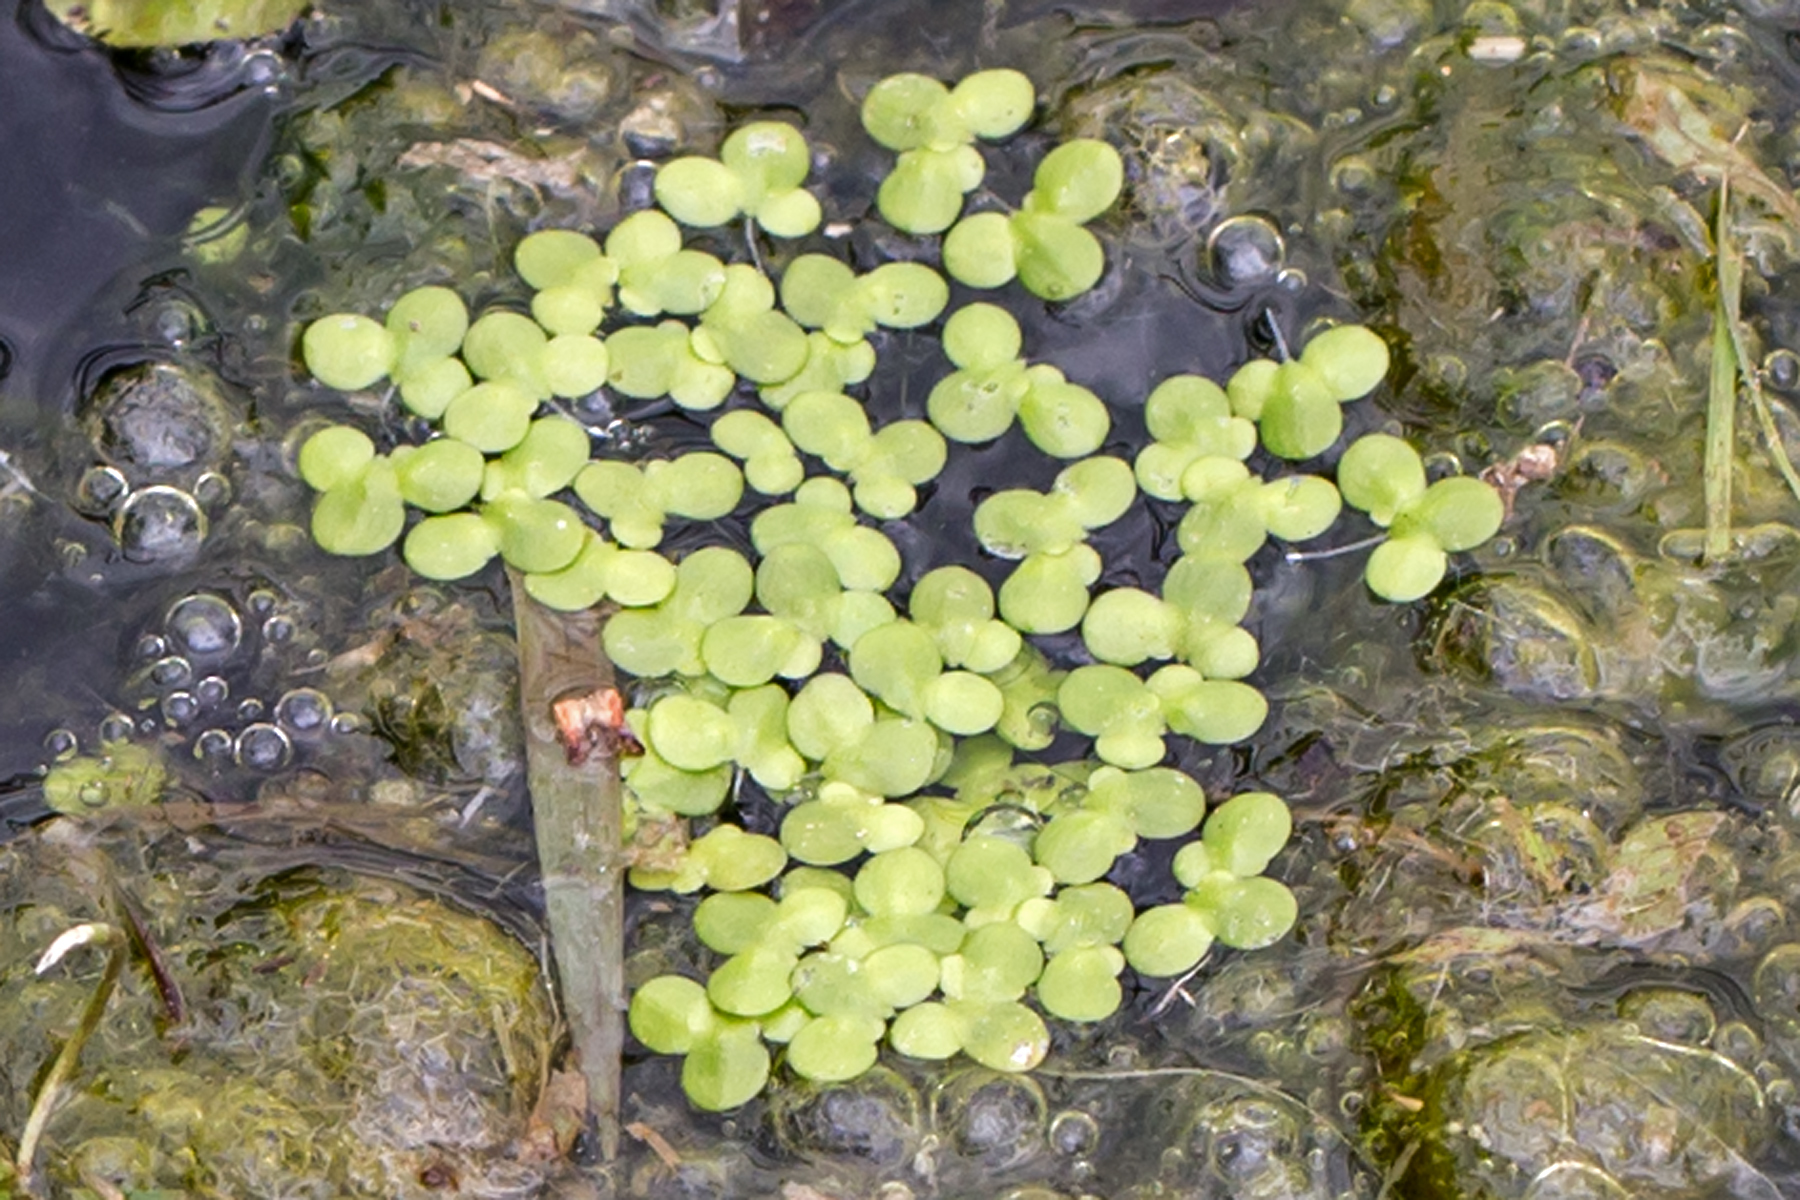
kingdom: Plantae
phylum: Tracheophyta
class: Liliopsida
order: Alismatales
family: Araceae
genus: Lemna
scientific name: Lemna minor
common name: Common duckweed
